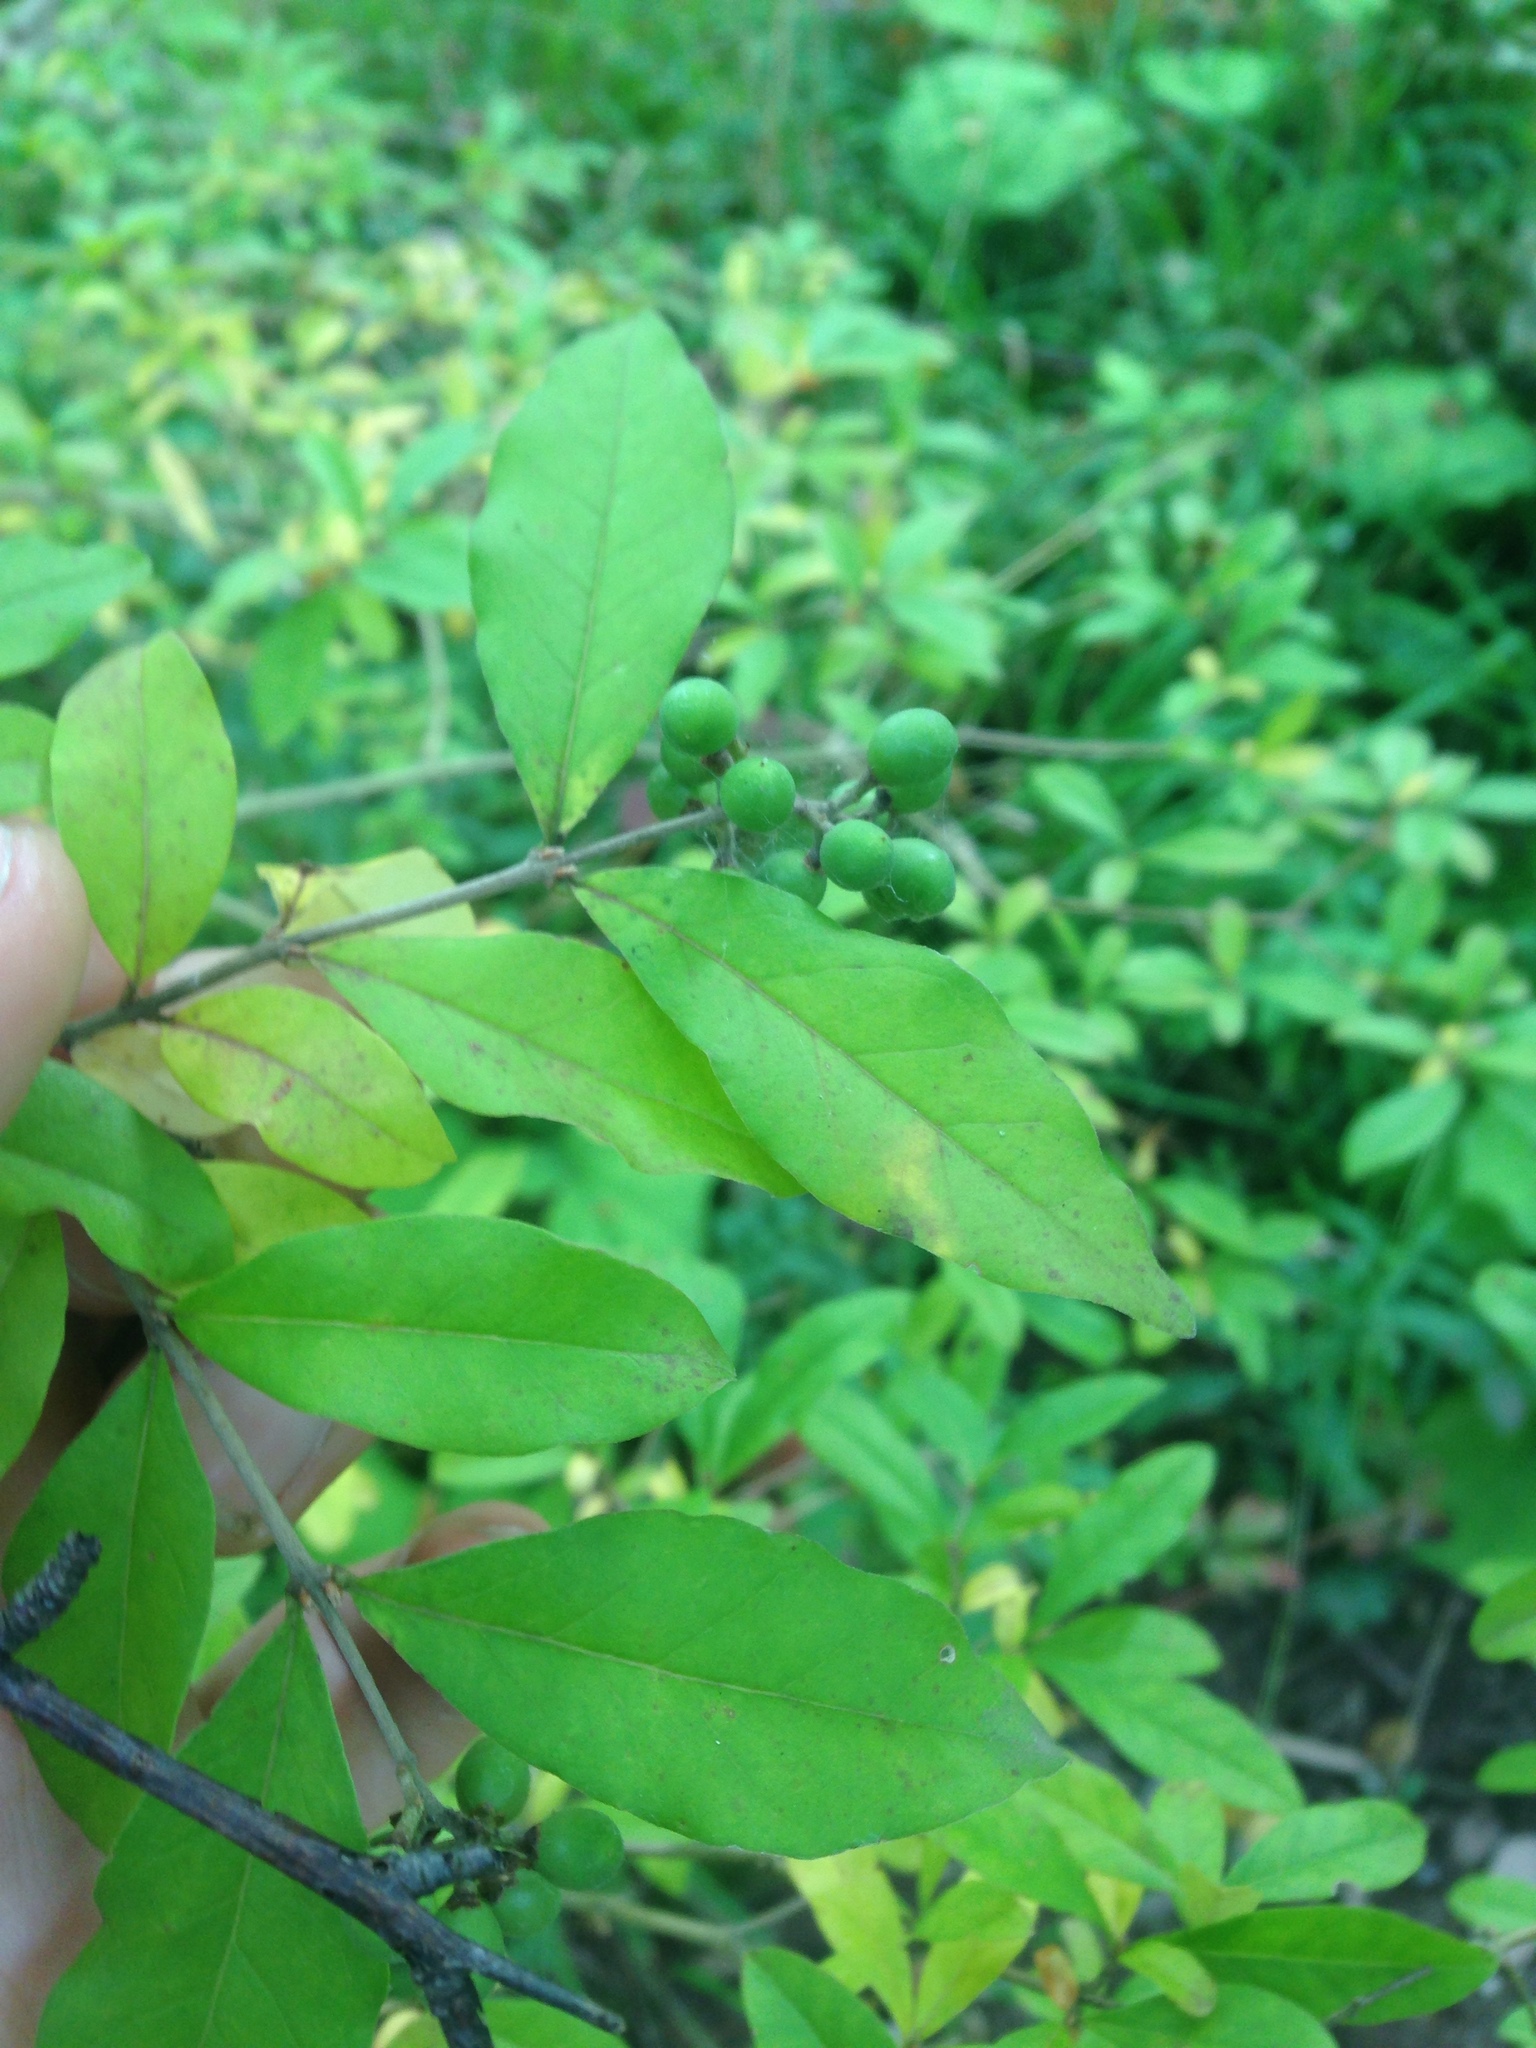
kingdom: Plantae
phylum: Tracheophyta
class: Magnoliopsida
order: Lamiales
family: Oleaceae
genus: Ligustrum
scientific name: Ligustrum vulgare
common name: Wild privet
